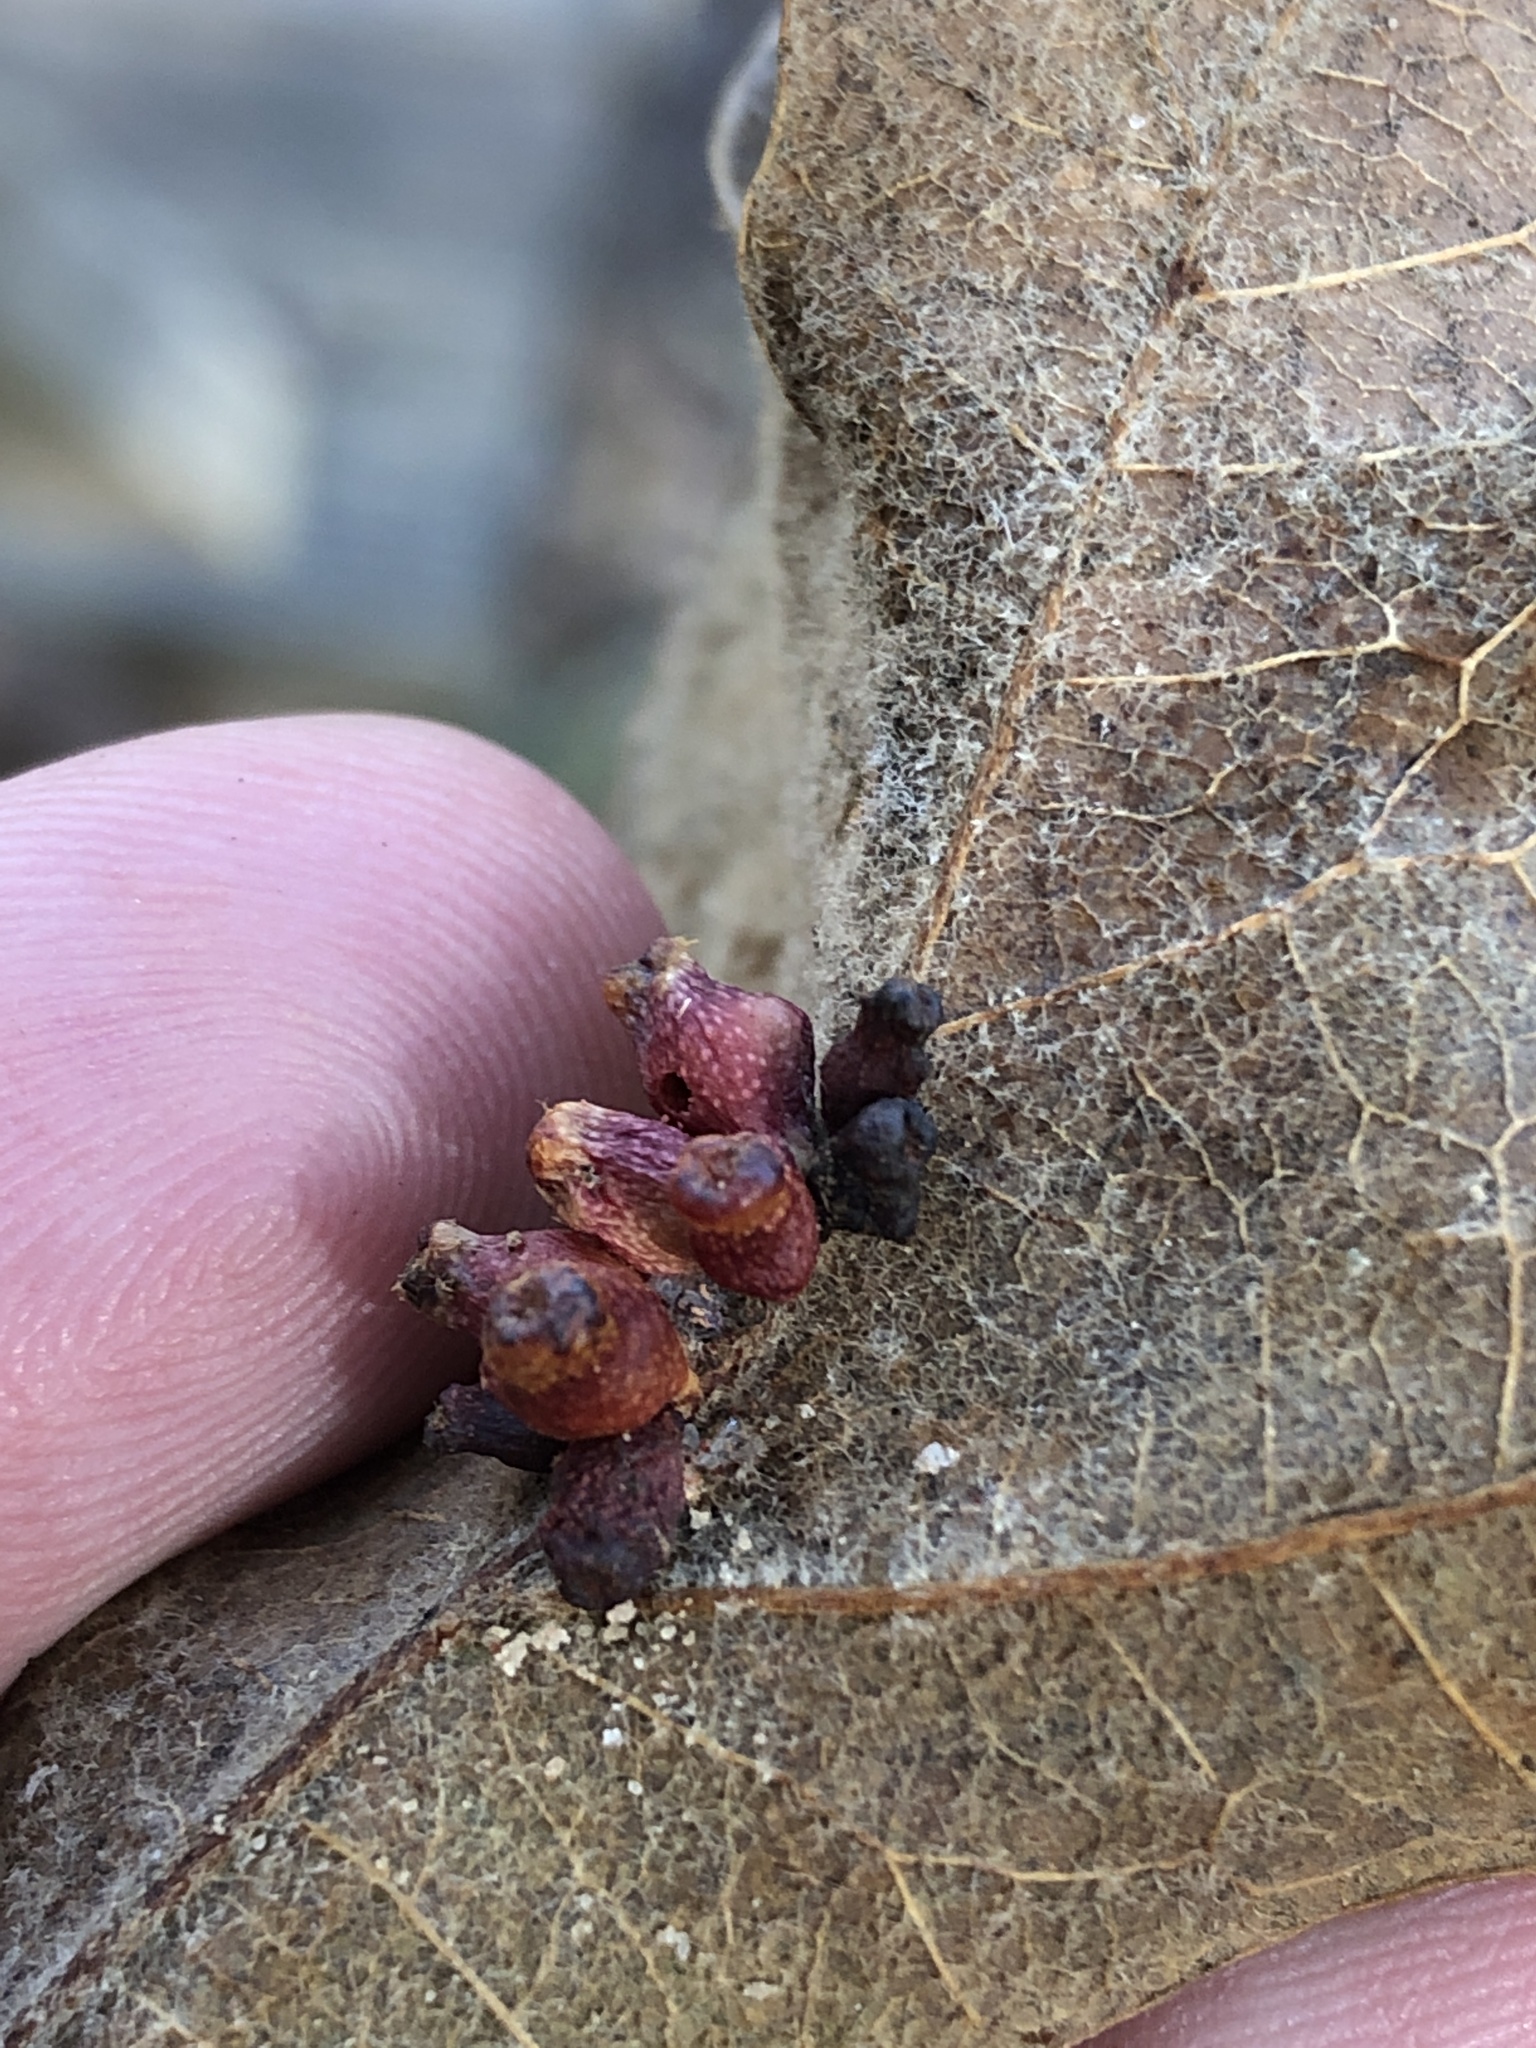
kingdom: Animalia
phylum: Arthropoda
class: Insecta
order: Hymenoptera
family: Cynipidae
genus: Andricus
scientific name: Andricus lustrans
